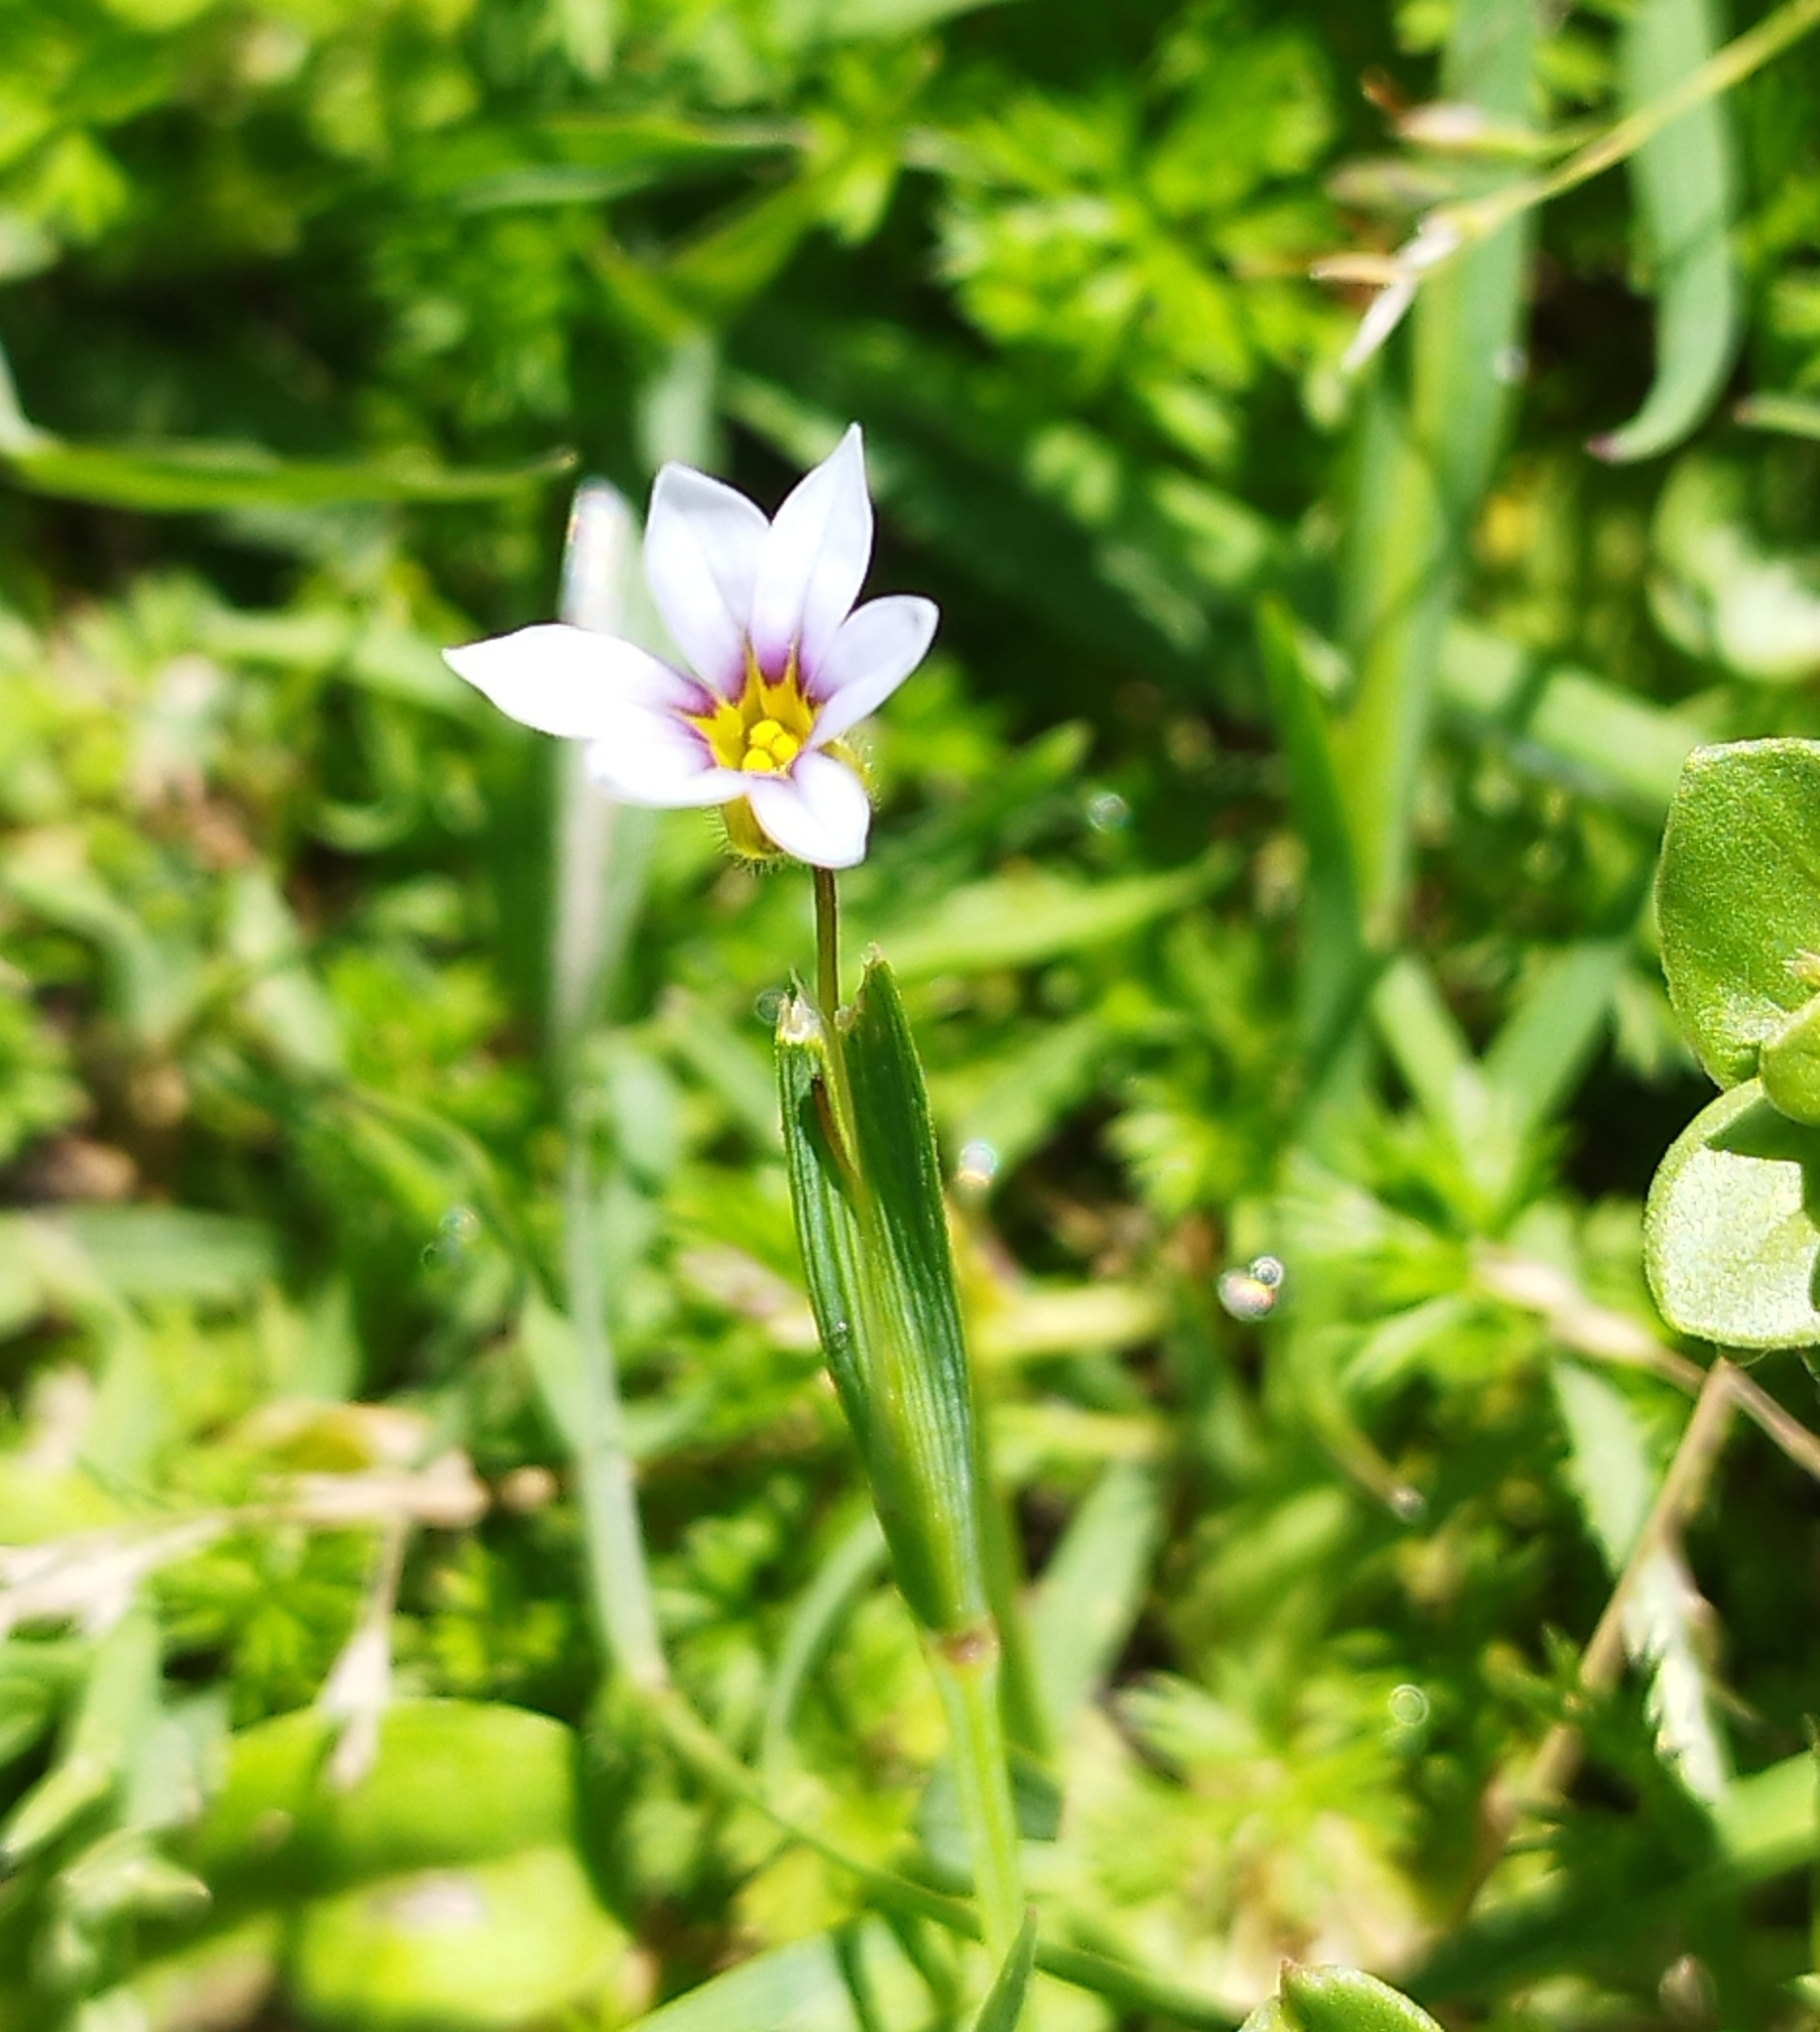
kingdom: Plantae
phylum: Tracheophyta
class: Liliopsida
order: Asparagales
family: Iridaceae
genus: Sisyrinchium
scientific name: Sisyrinchium micranthum
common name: Bermuda pigroot
